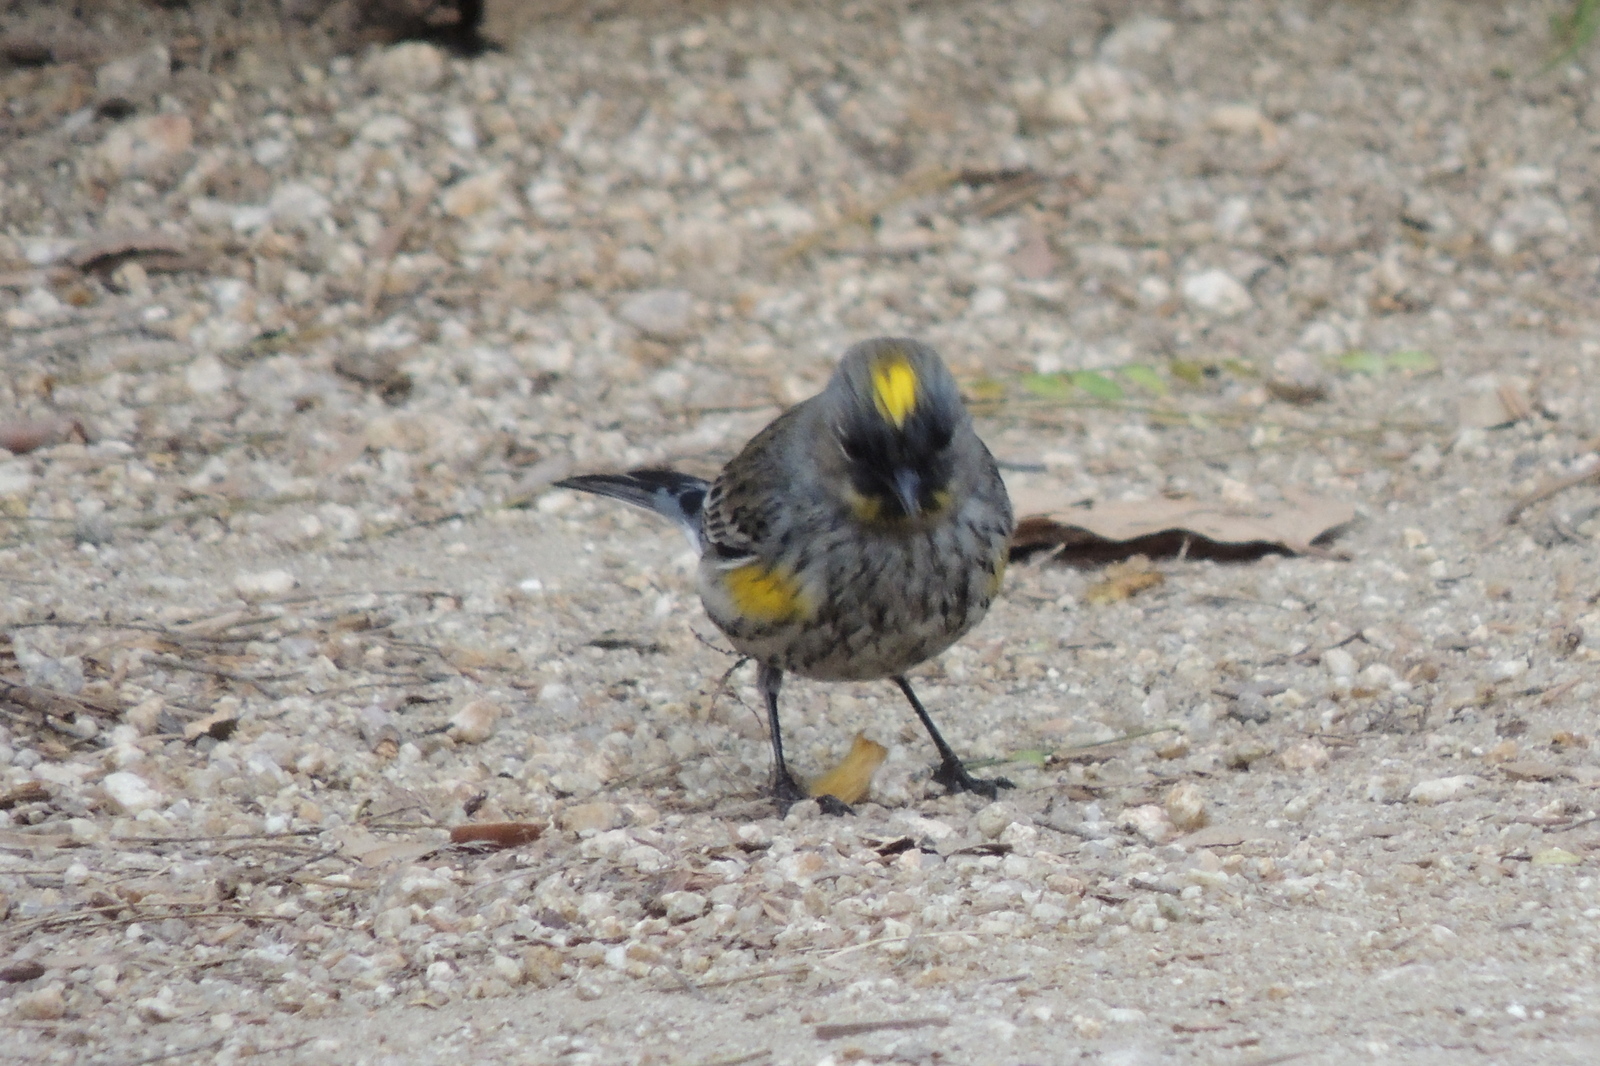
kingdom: Animalia
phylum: Chordata
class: Aves
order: Passeriformes
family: Parulidae
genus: Setophaga
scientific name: Setophaga coronata
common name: Myrtle warbler
